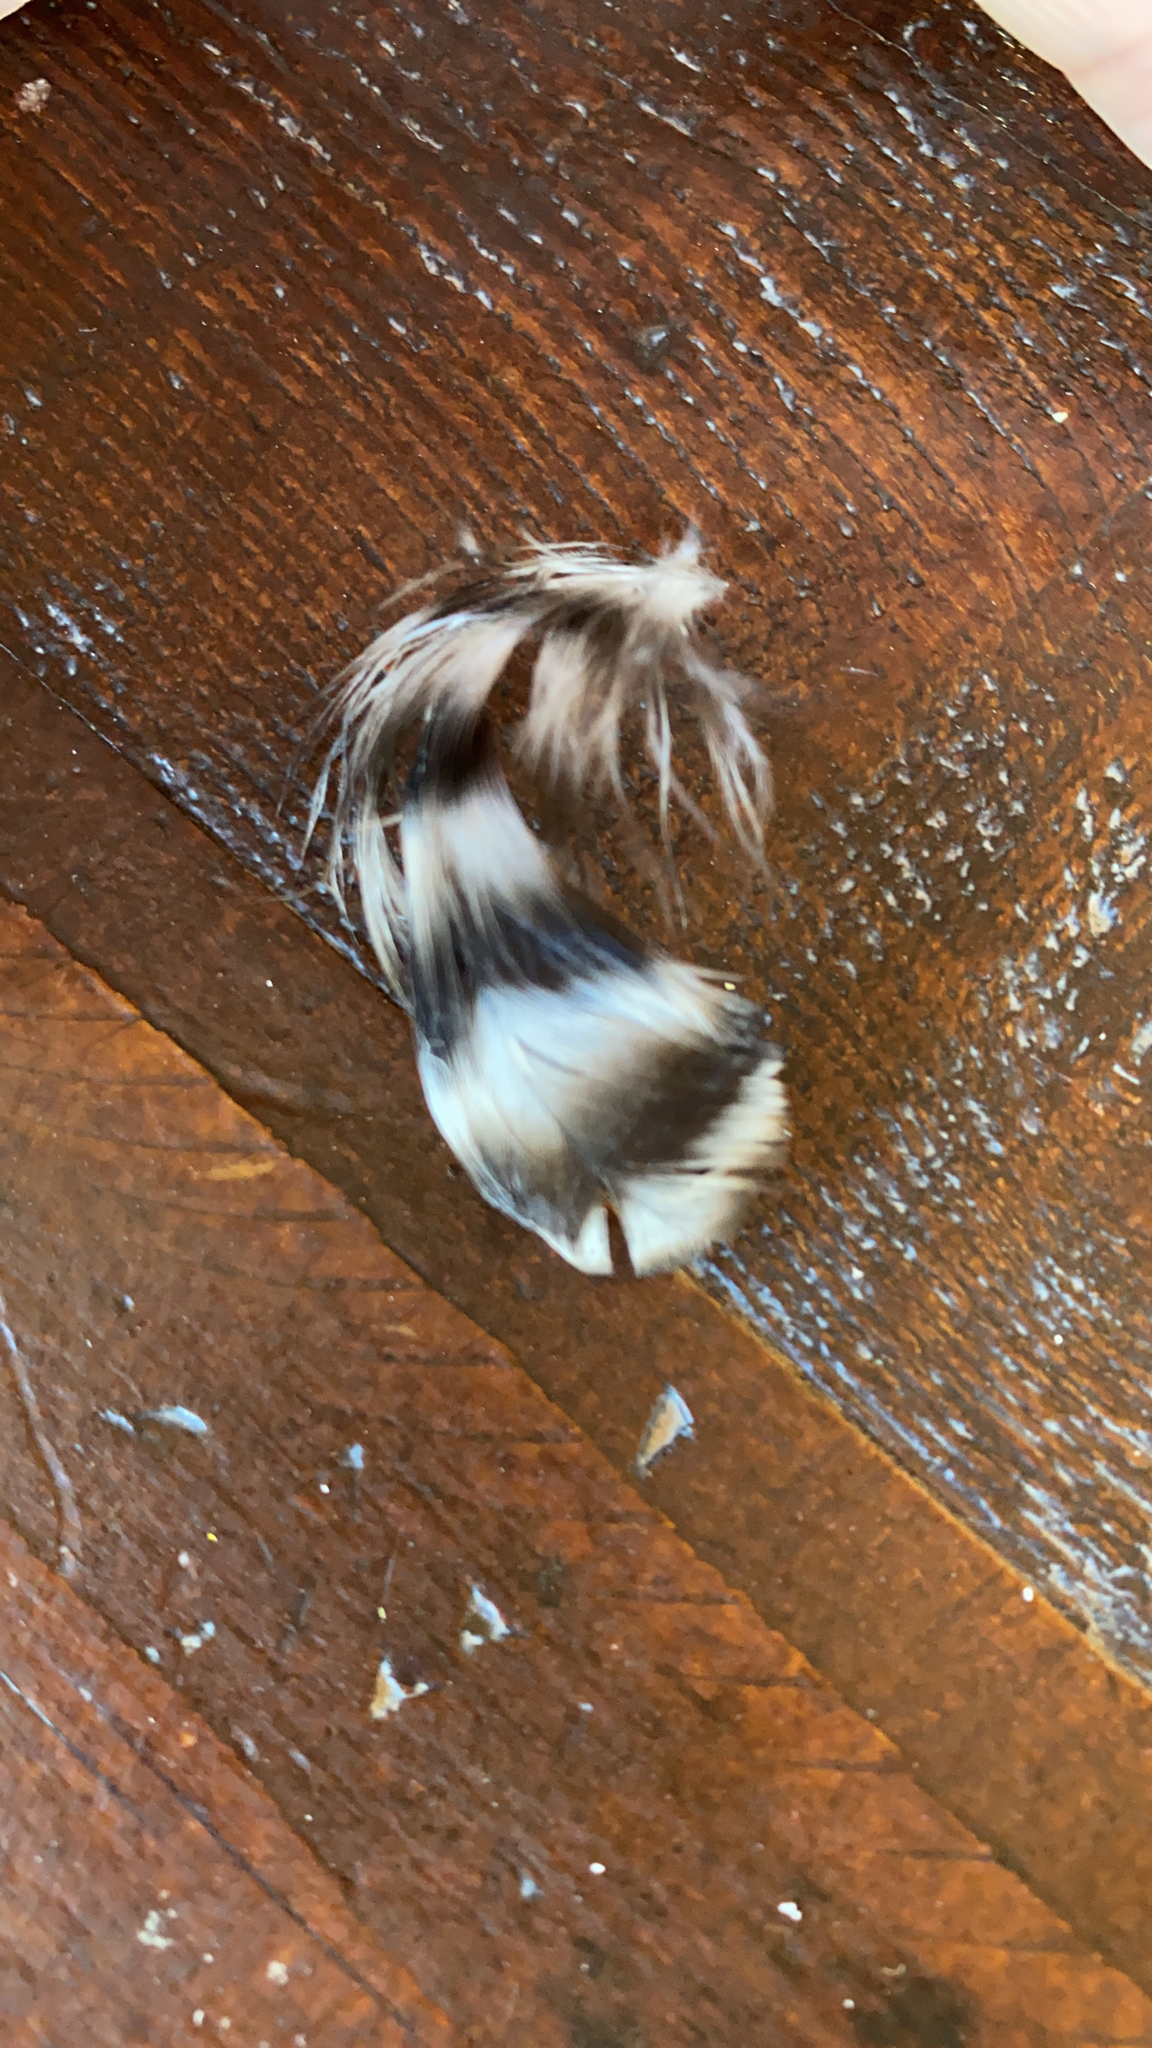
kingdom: Animalia
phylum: Chordata
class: Aves
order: Galliformes
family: Phasianidae
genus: Gallus
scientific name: Gallus gallus
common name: Red junglefowl
